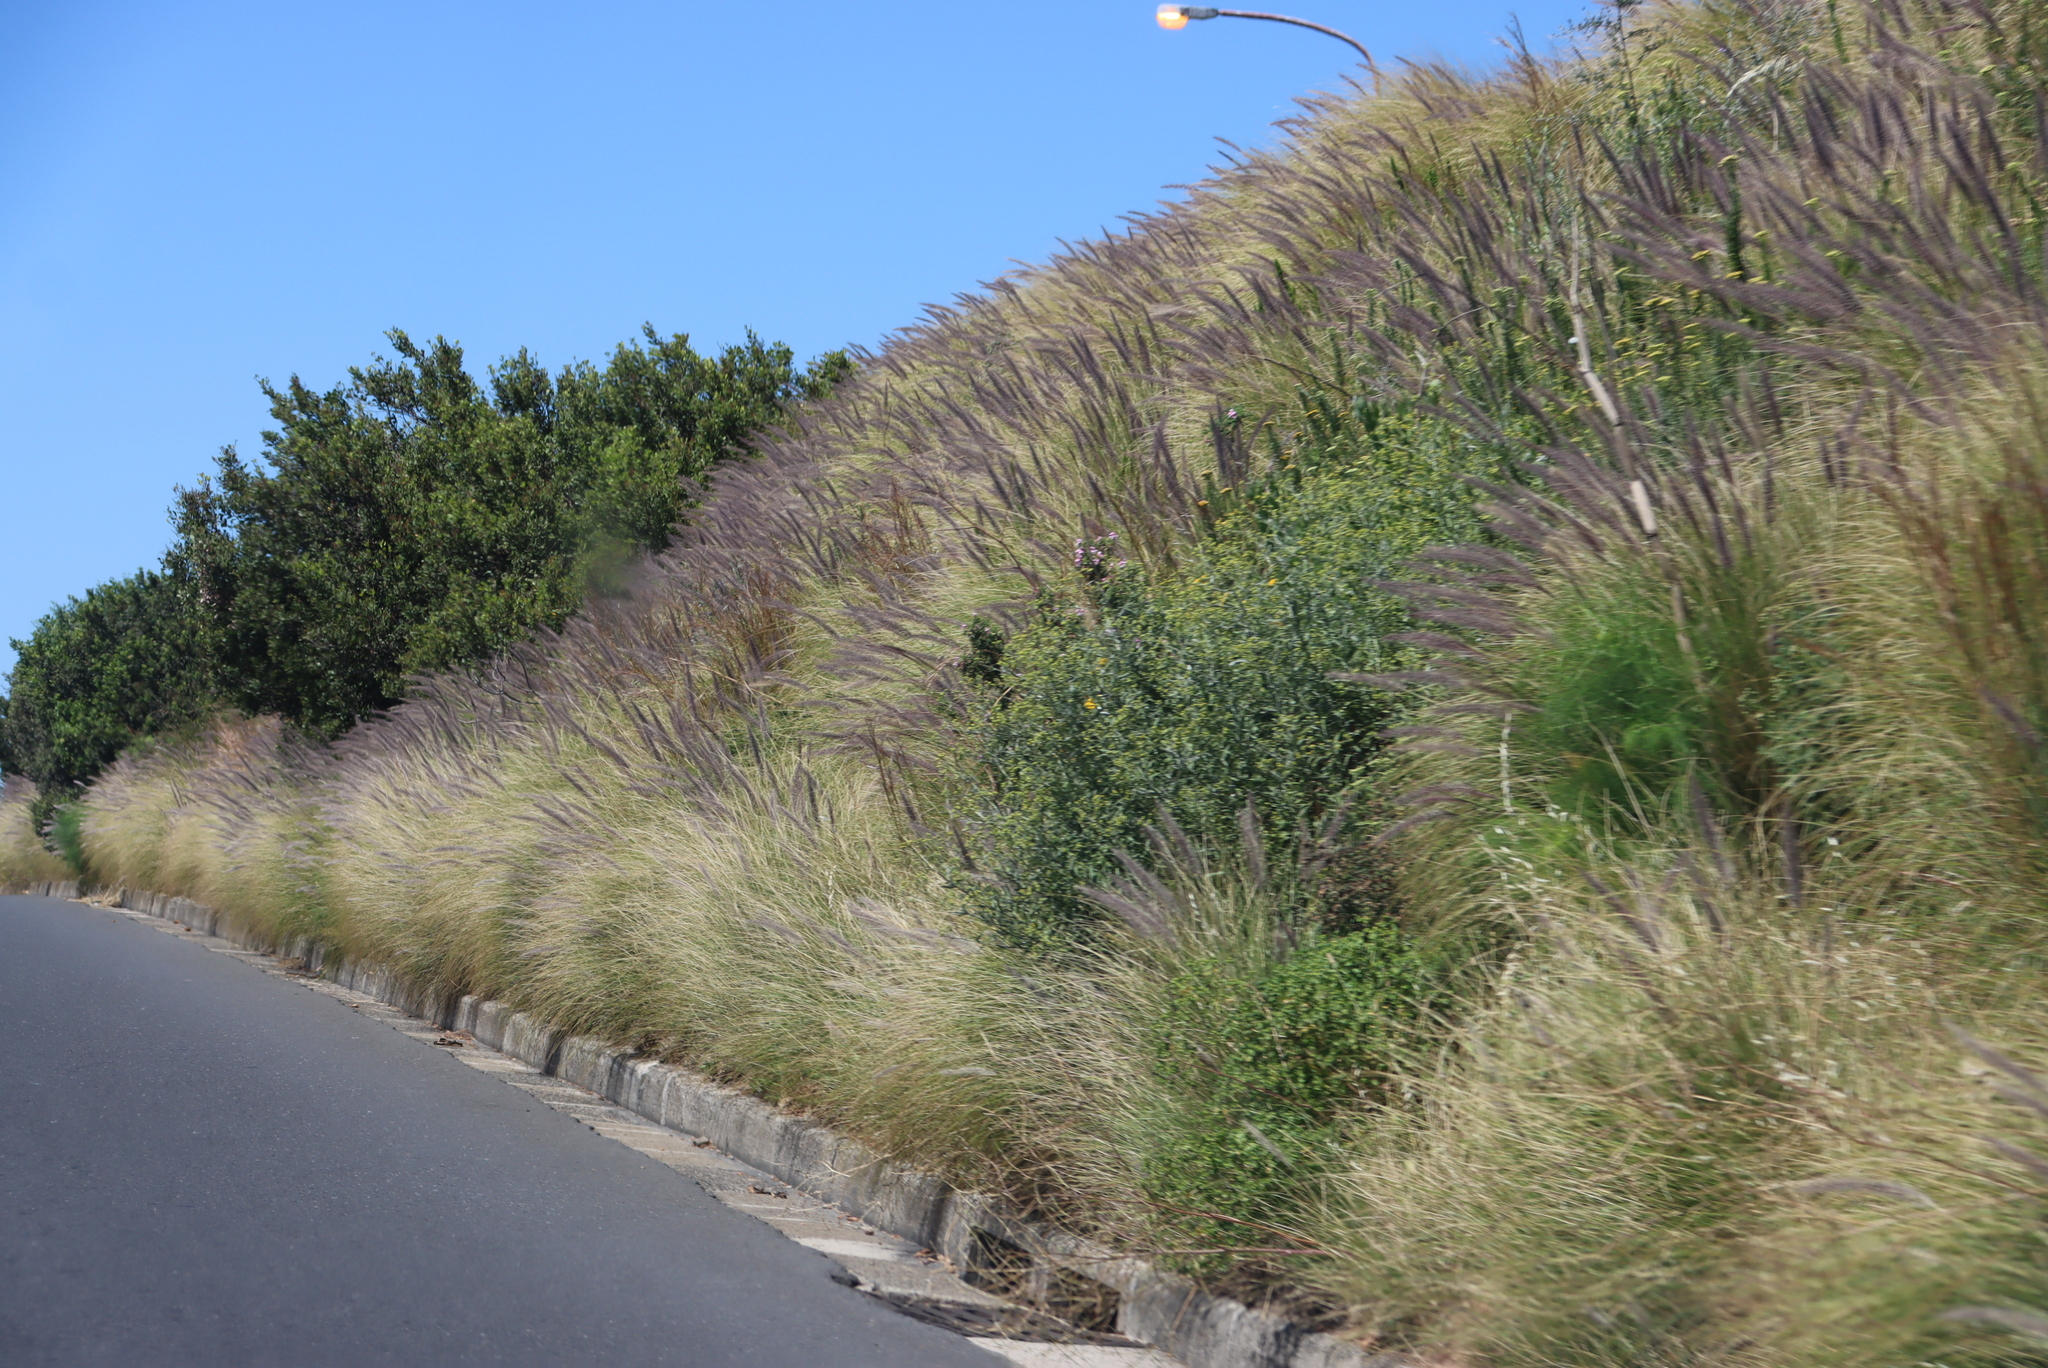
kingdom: Plantae
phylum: Tracheophyta
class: Liliopsida
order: Poales
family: Poaceae
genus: Cenchrus
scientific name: Cenchrus setaceus
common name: Crimson fountaingrass
